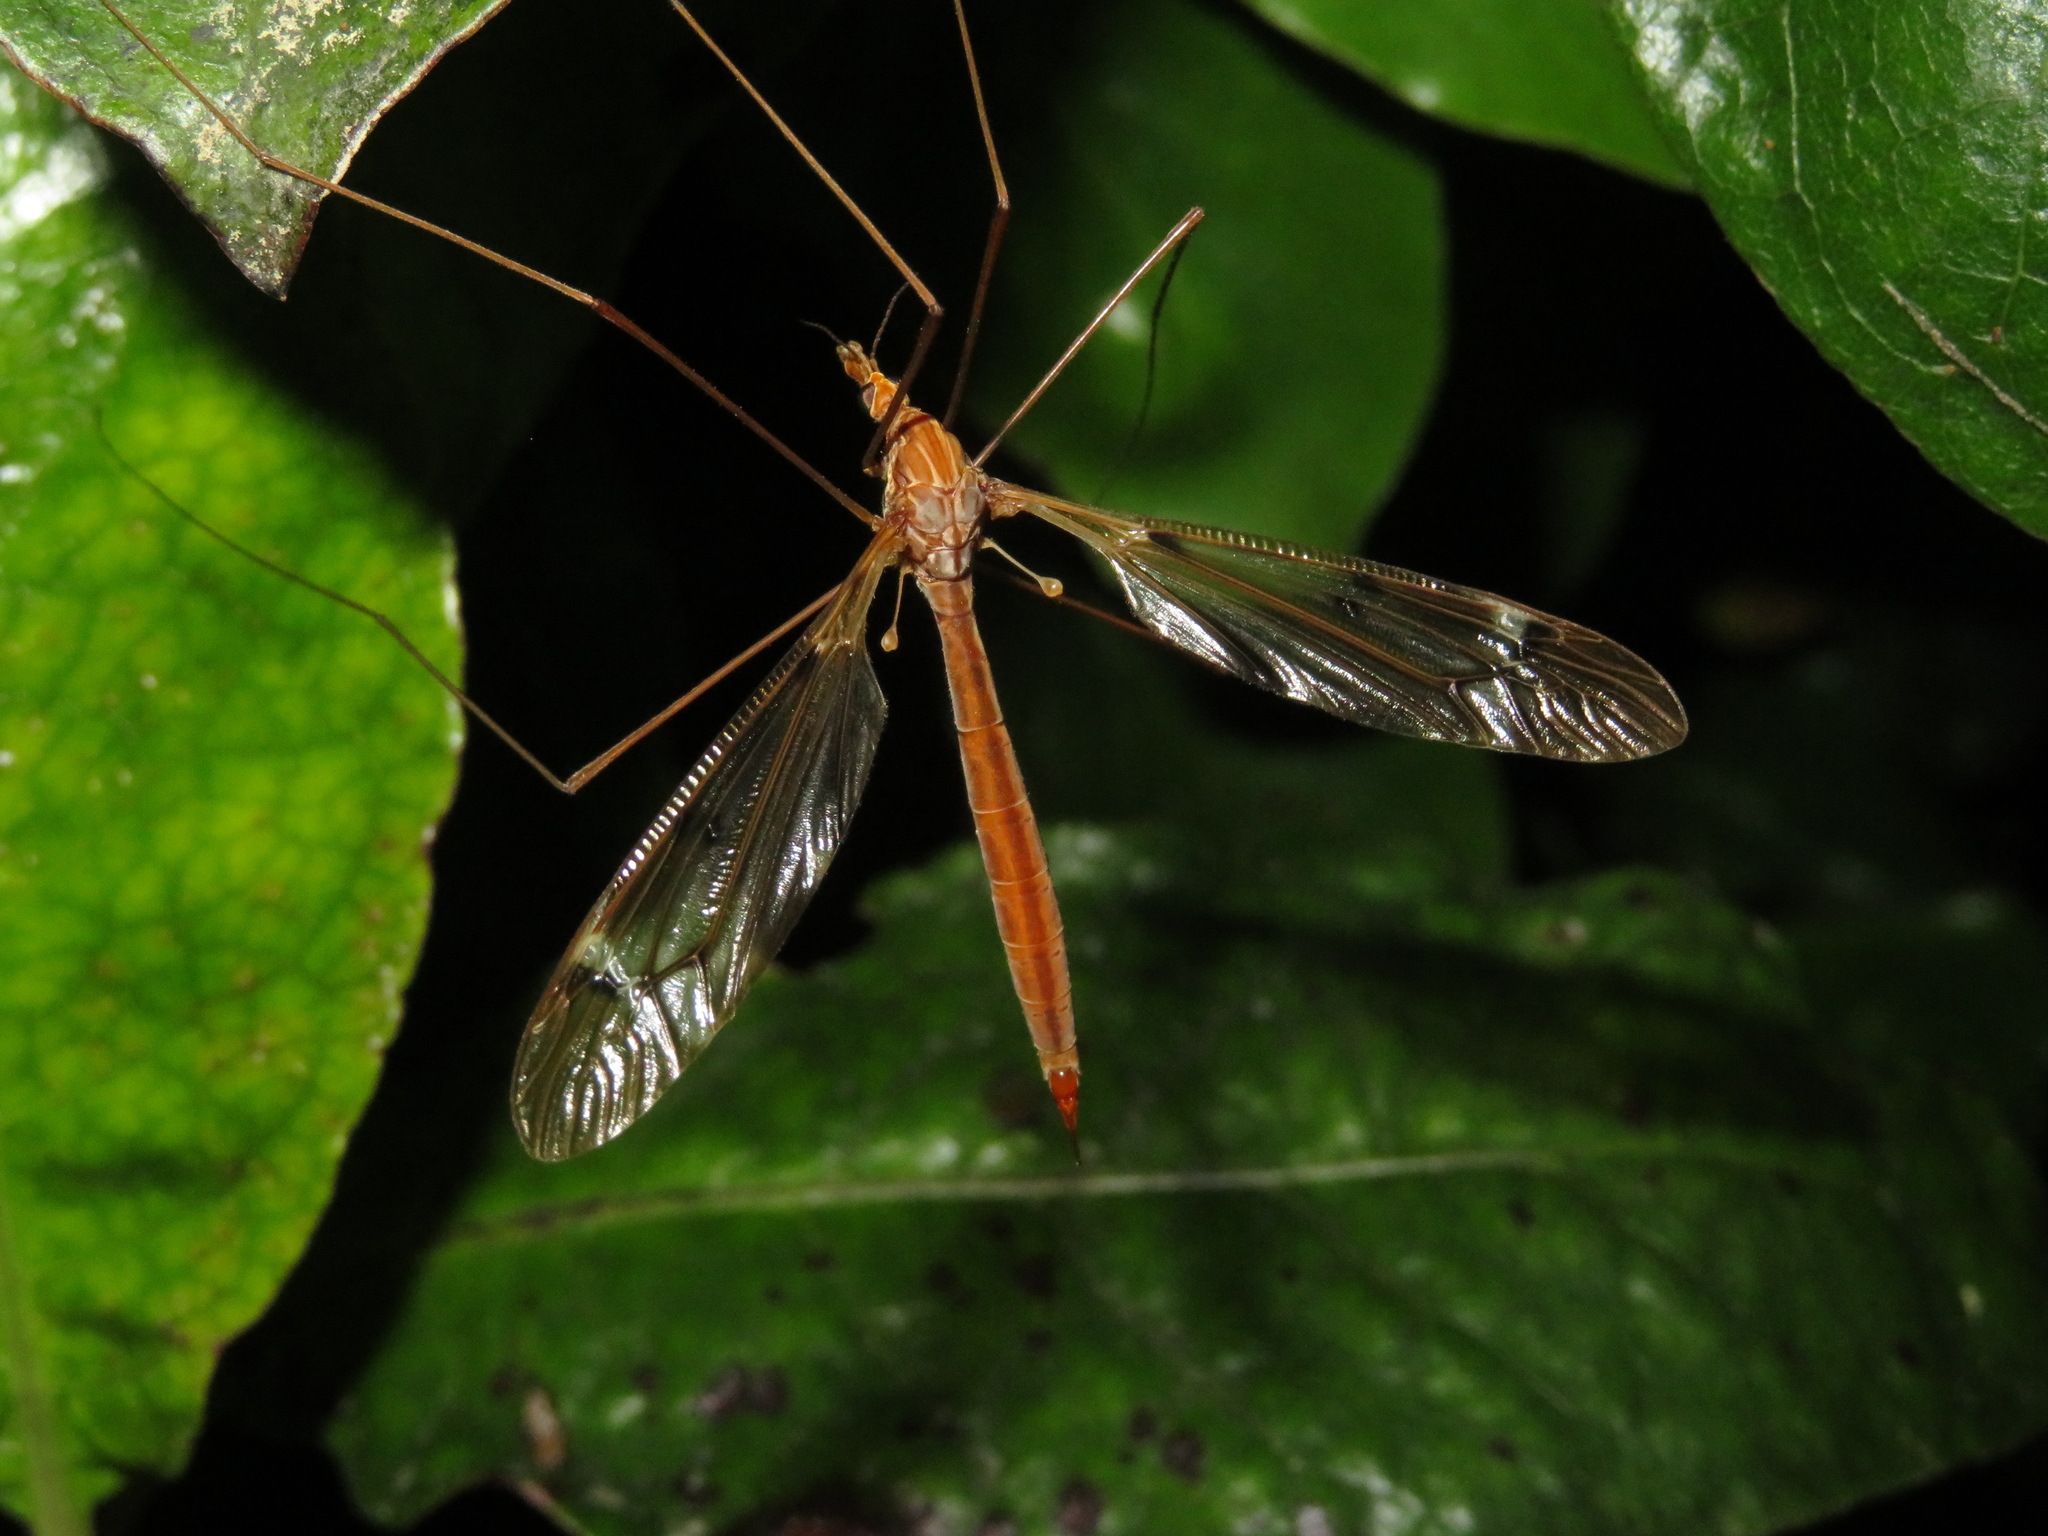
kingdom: Animalia
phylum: Arthropoda
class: Insecta
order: Diptera
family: Tipulidae
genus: Zelandotipula
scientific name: Zelandotipula fulva
